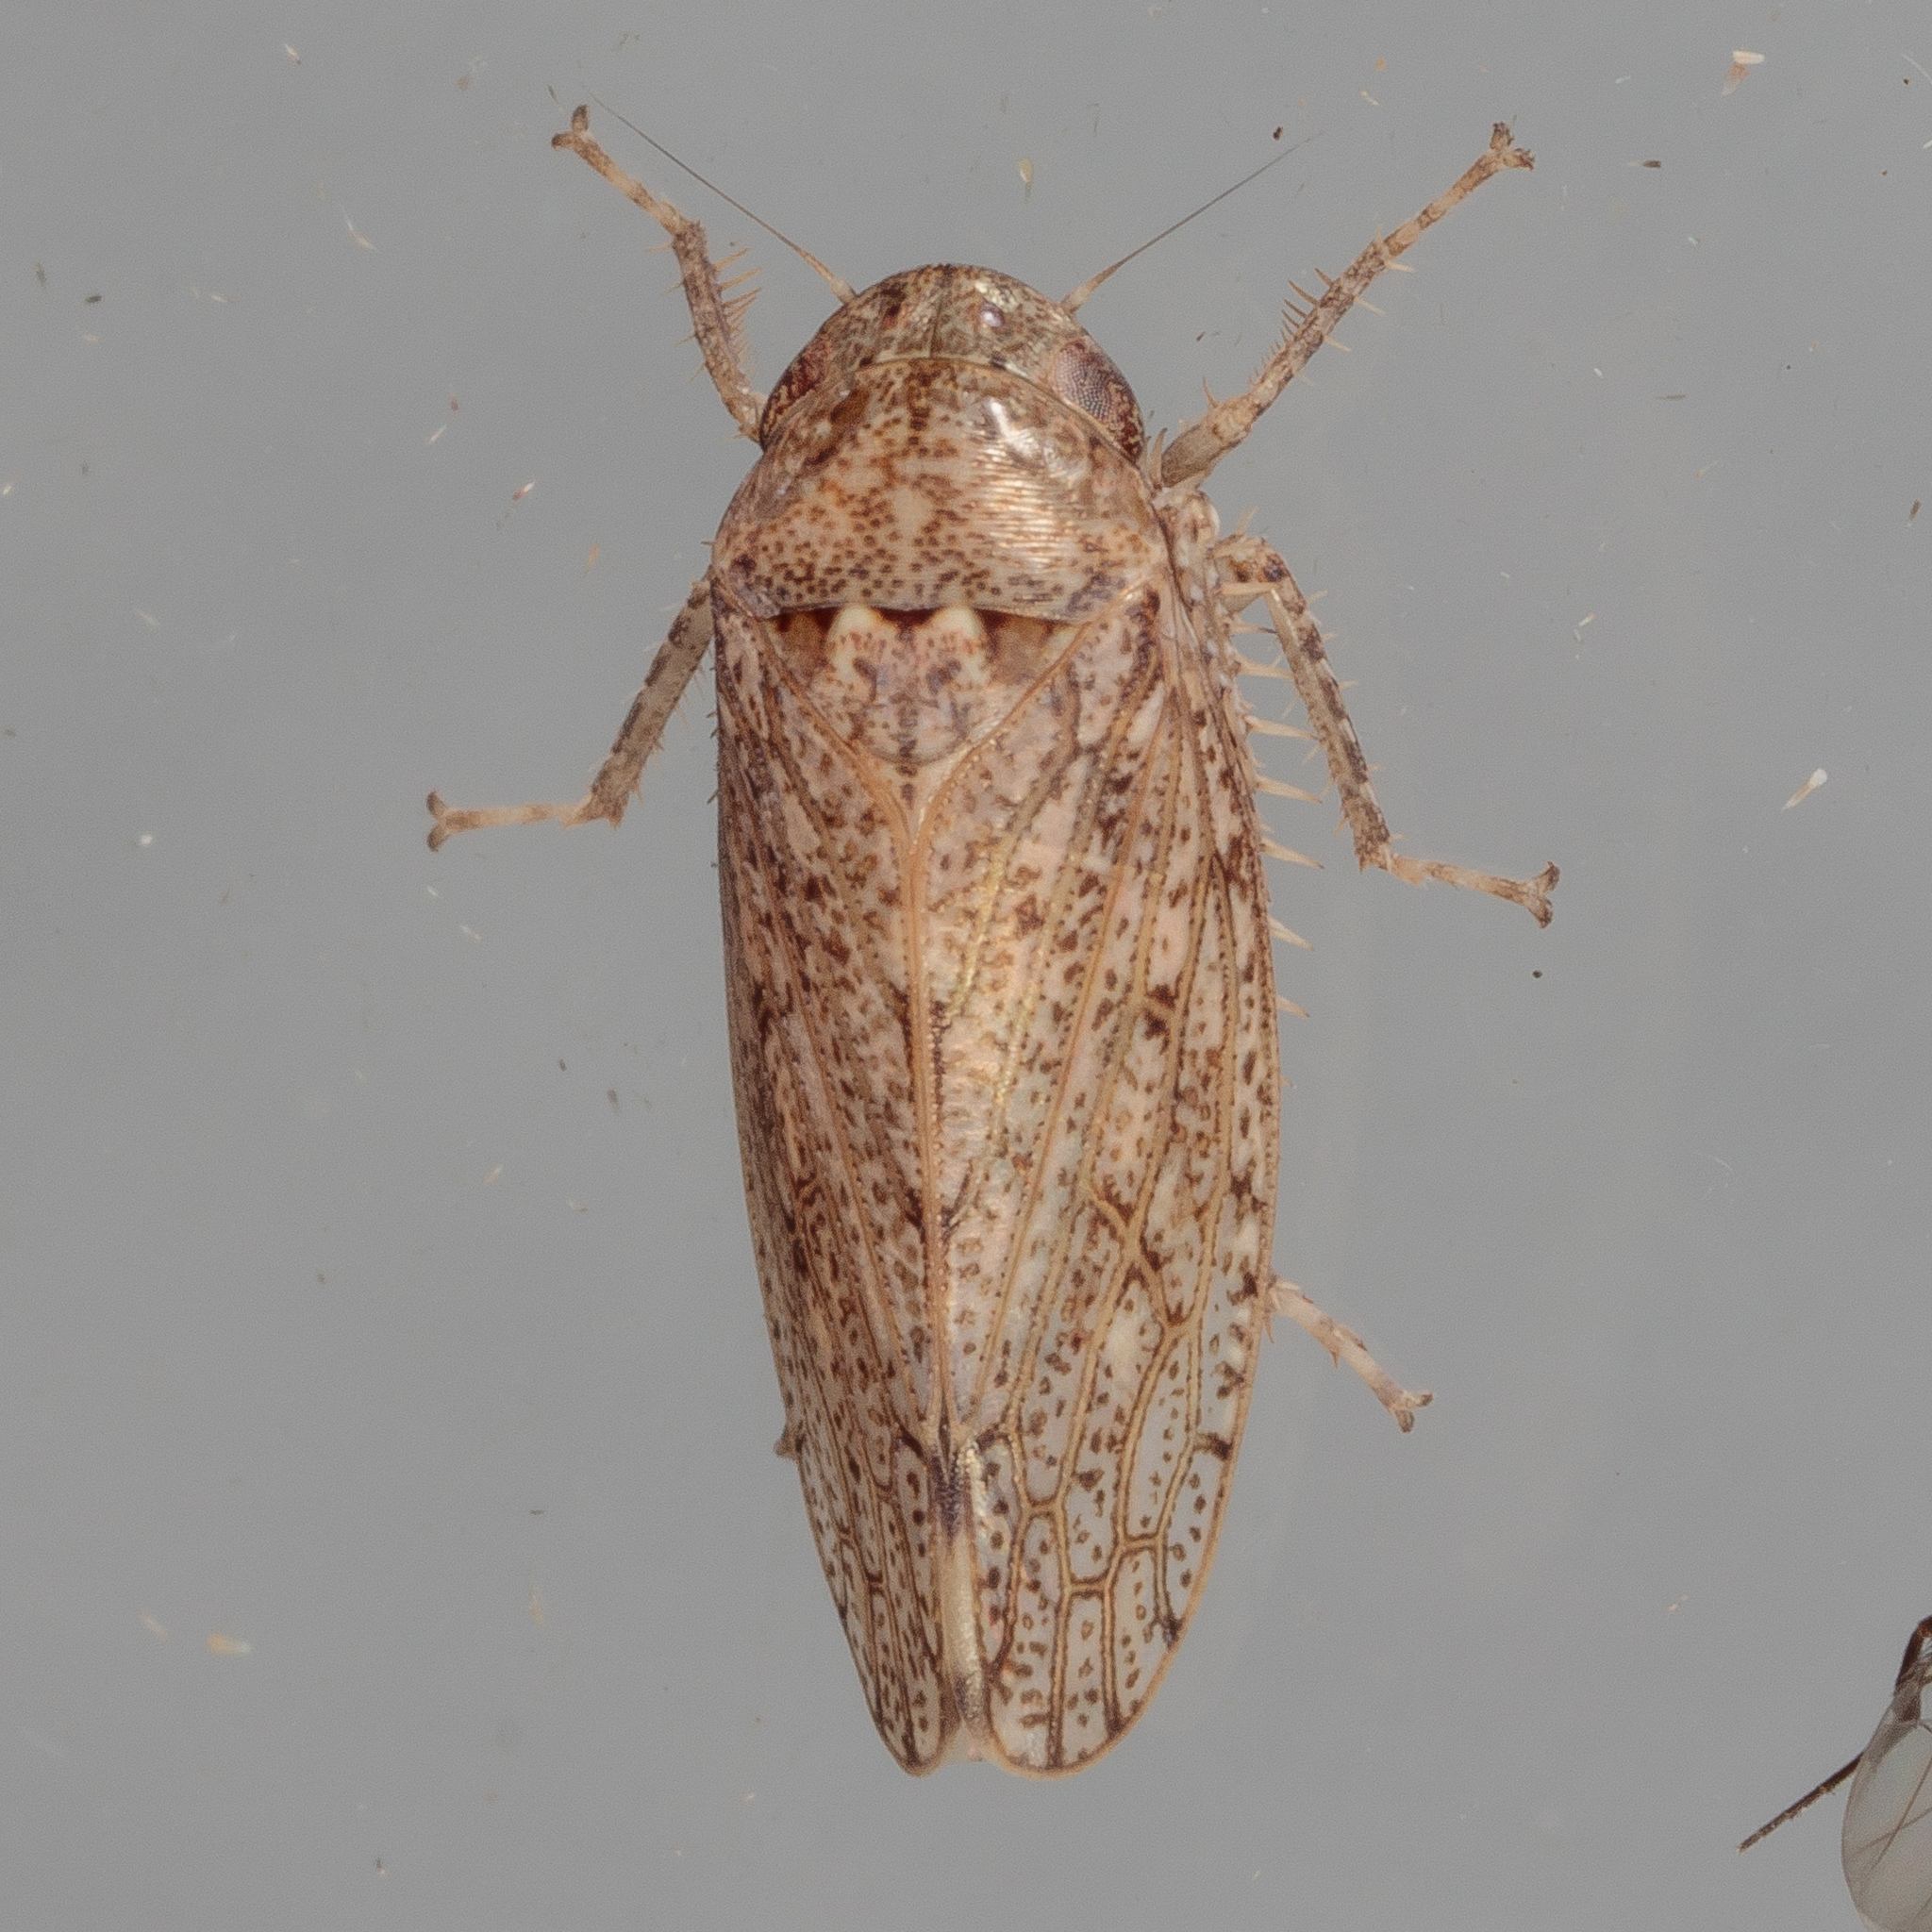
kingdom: Animalia
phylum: Arthropoda
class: Insecta
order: Hemiptera
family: Cicadellidae
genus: Curtara
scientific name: Curtara insularis
